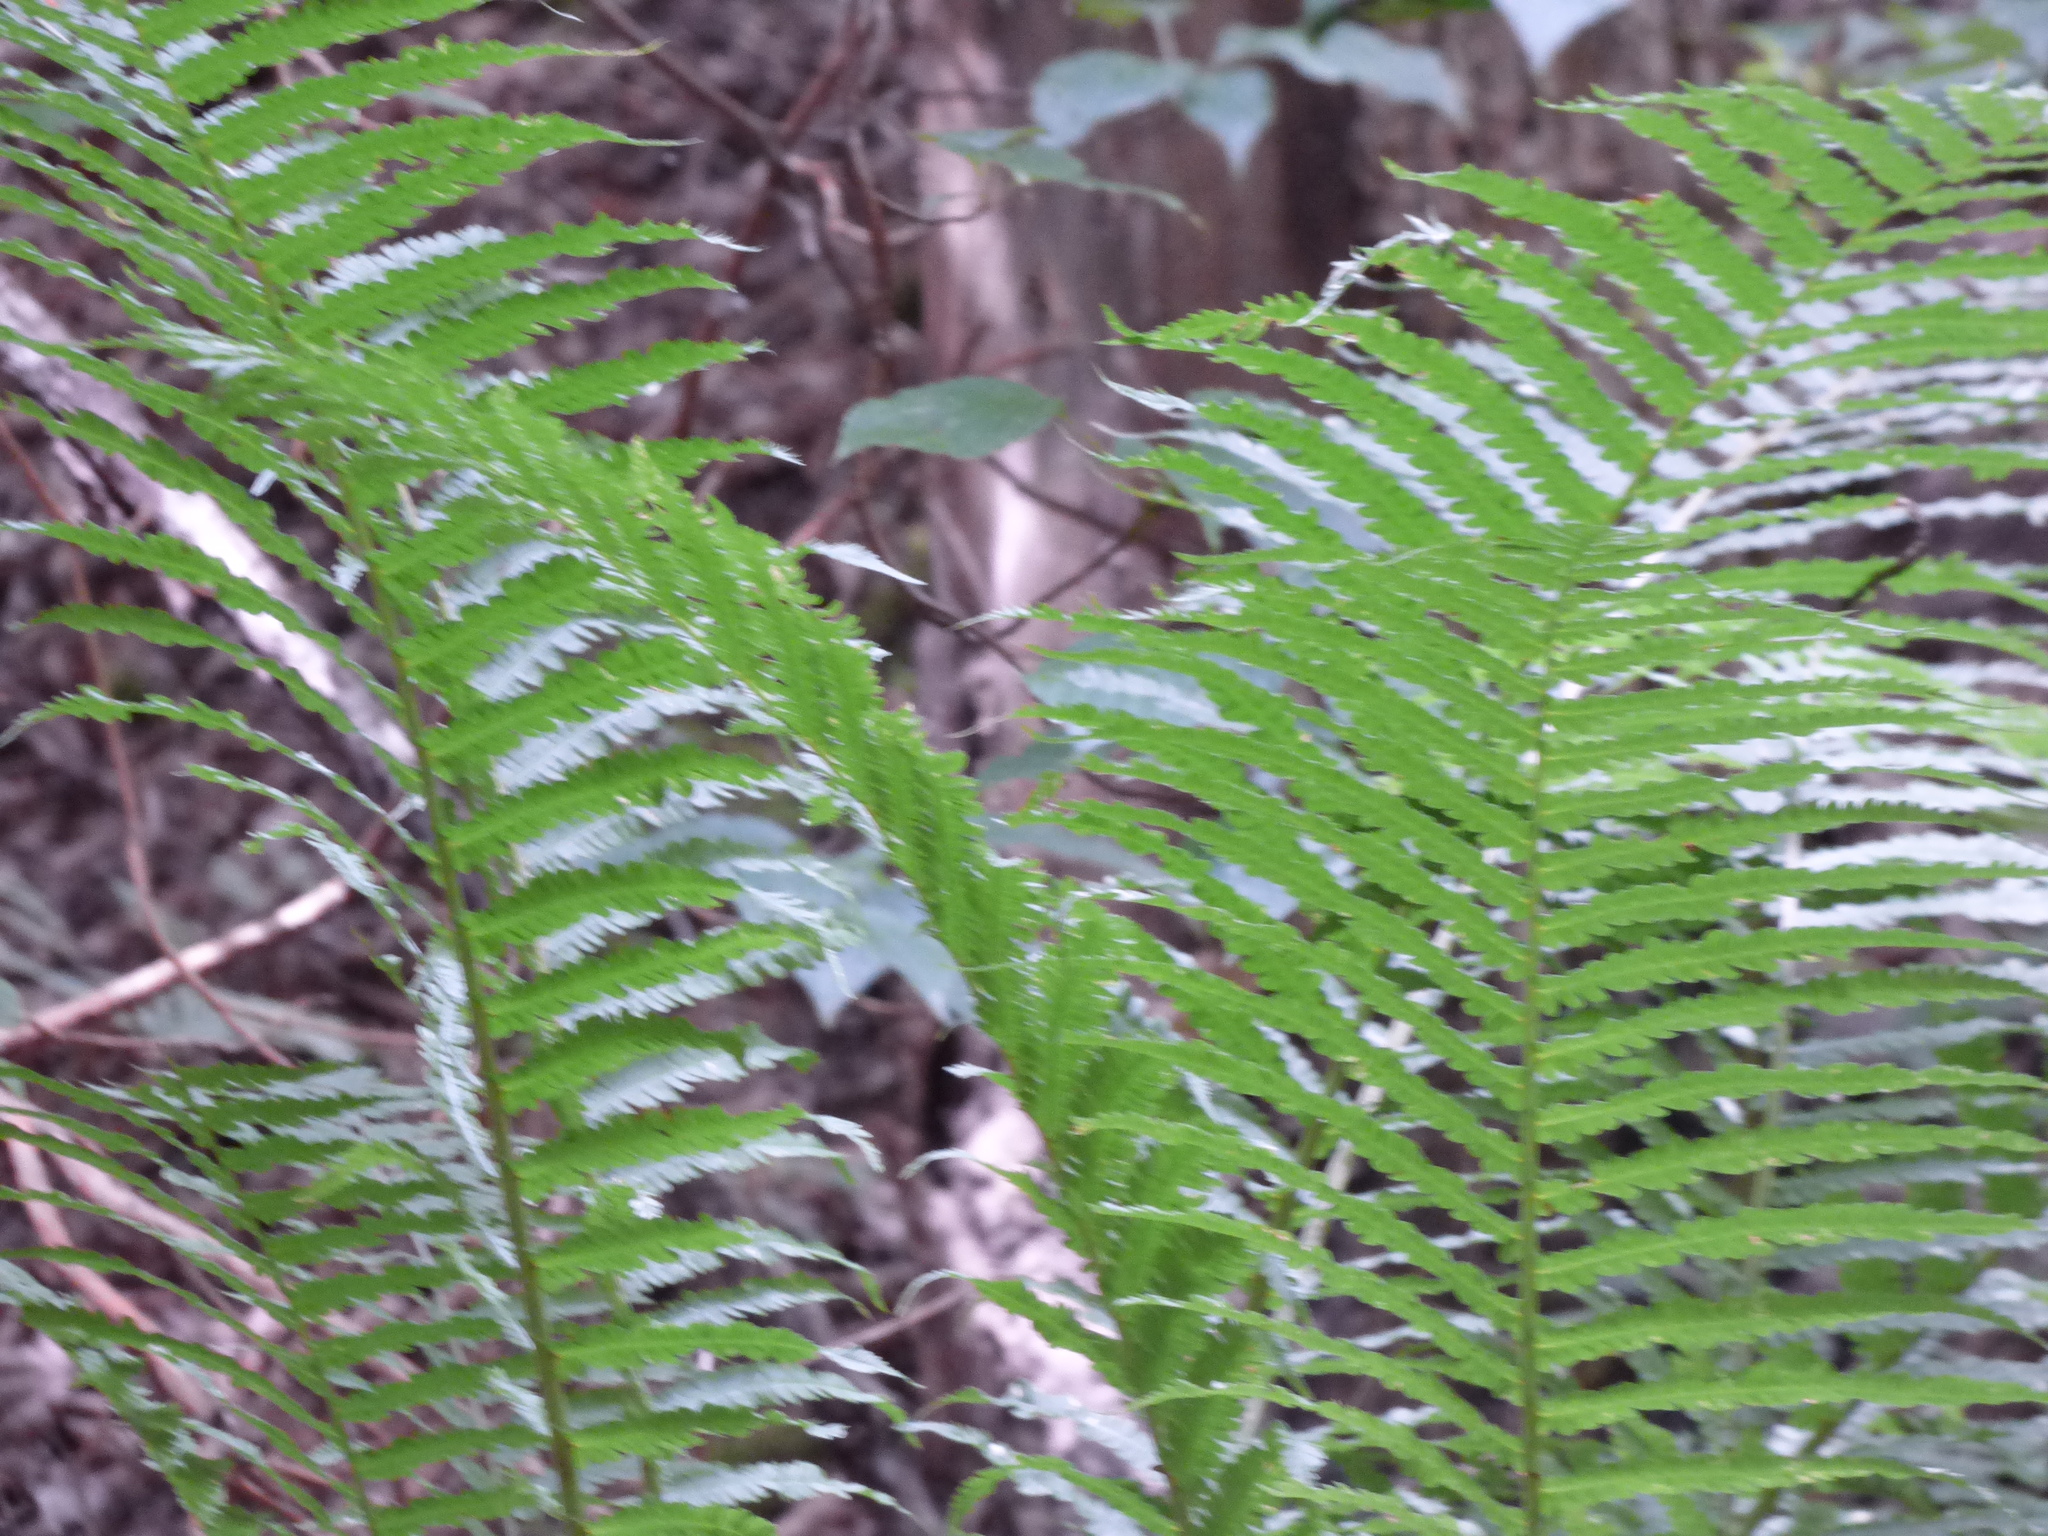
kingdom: Plantae
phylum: Tracheophyta
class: Polypodiopsida
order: Polypodiales
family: Onocleaceae
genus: Matteuccia
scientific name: Matteuccia struthiopteris
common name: Ostrich fern
